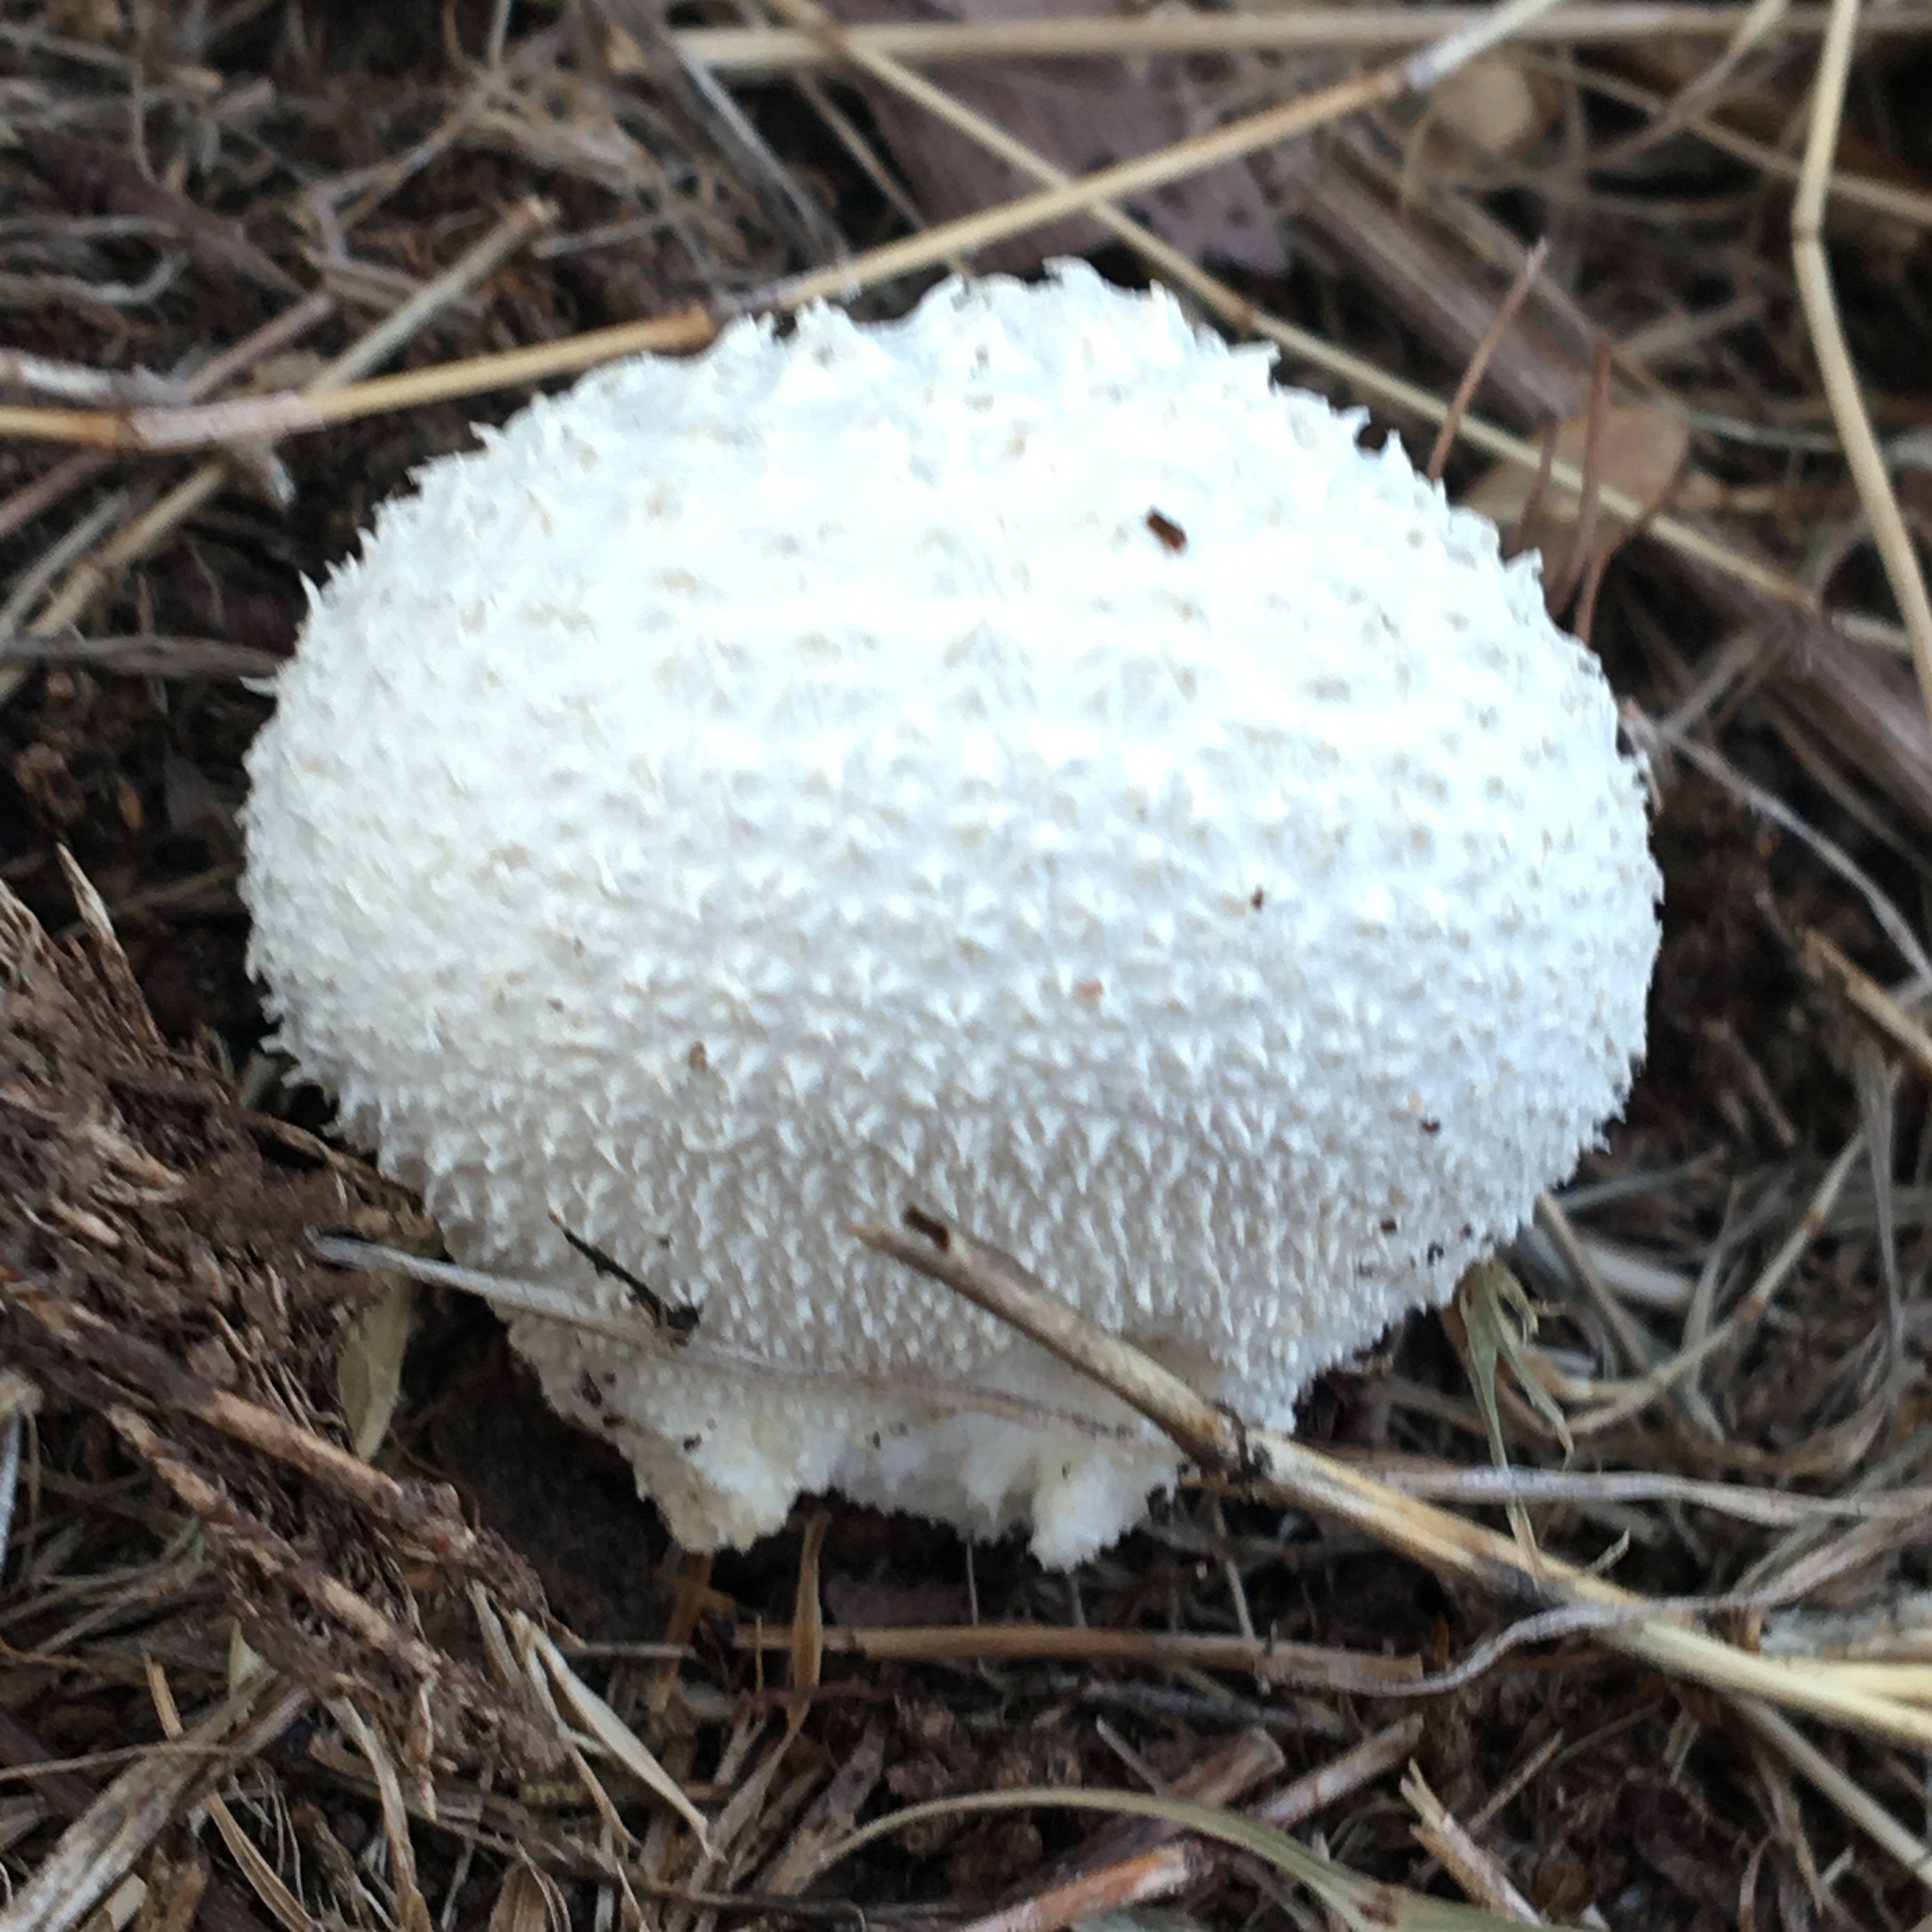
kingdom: Fungi
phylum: Basidiomycota
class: Agaricomycetes
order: Agaricales
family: Lycoperdaceae
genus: Lycoperdon
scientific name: Lycoperdon perlatum
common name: Common puffball
